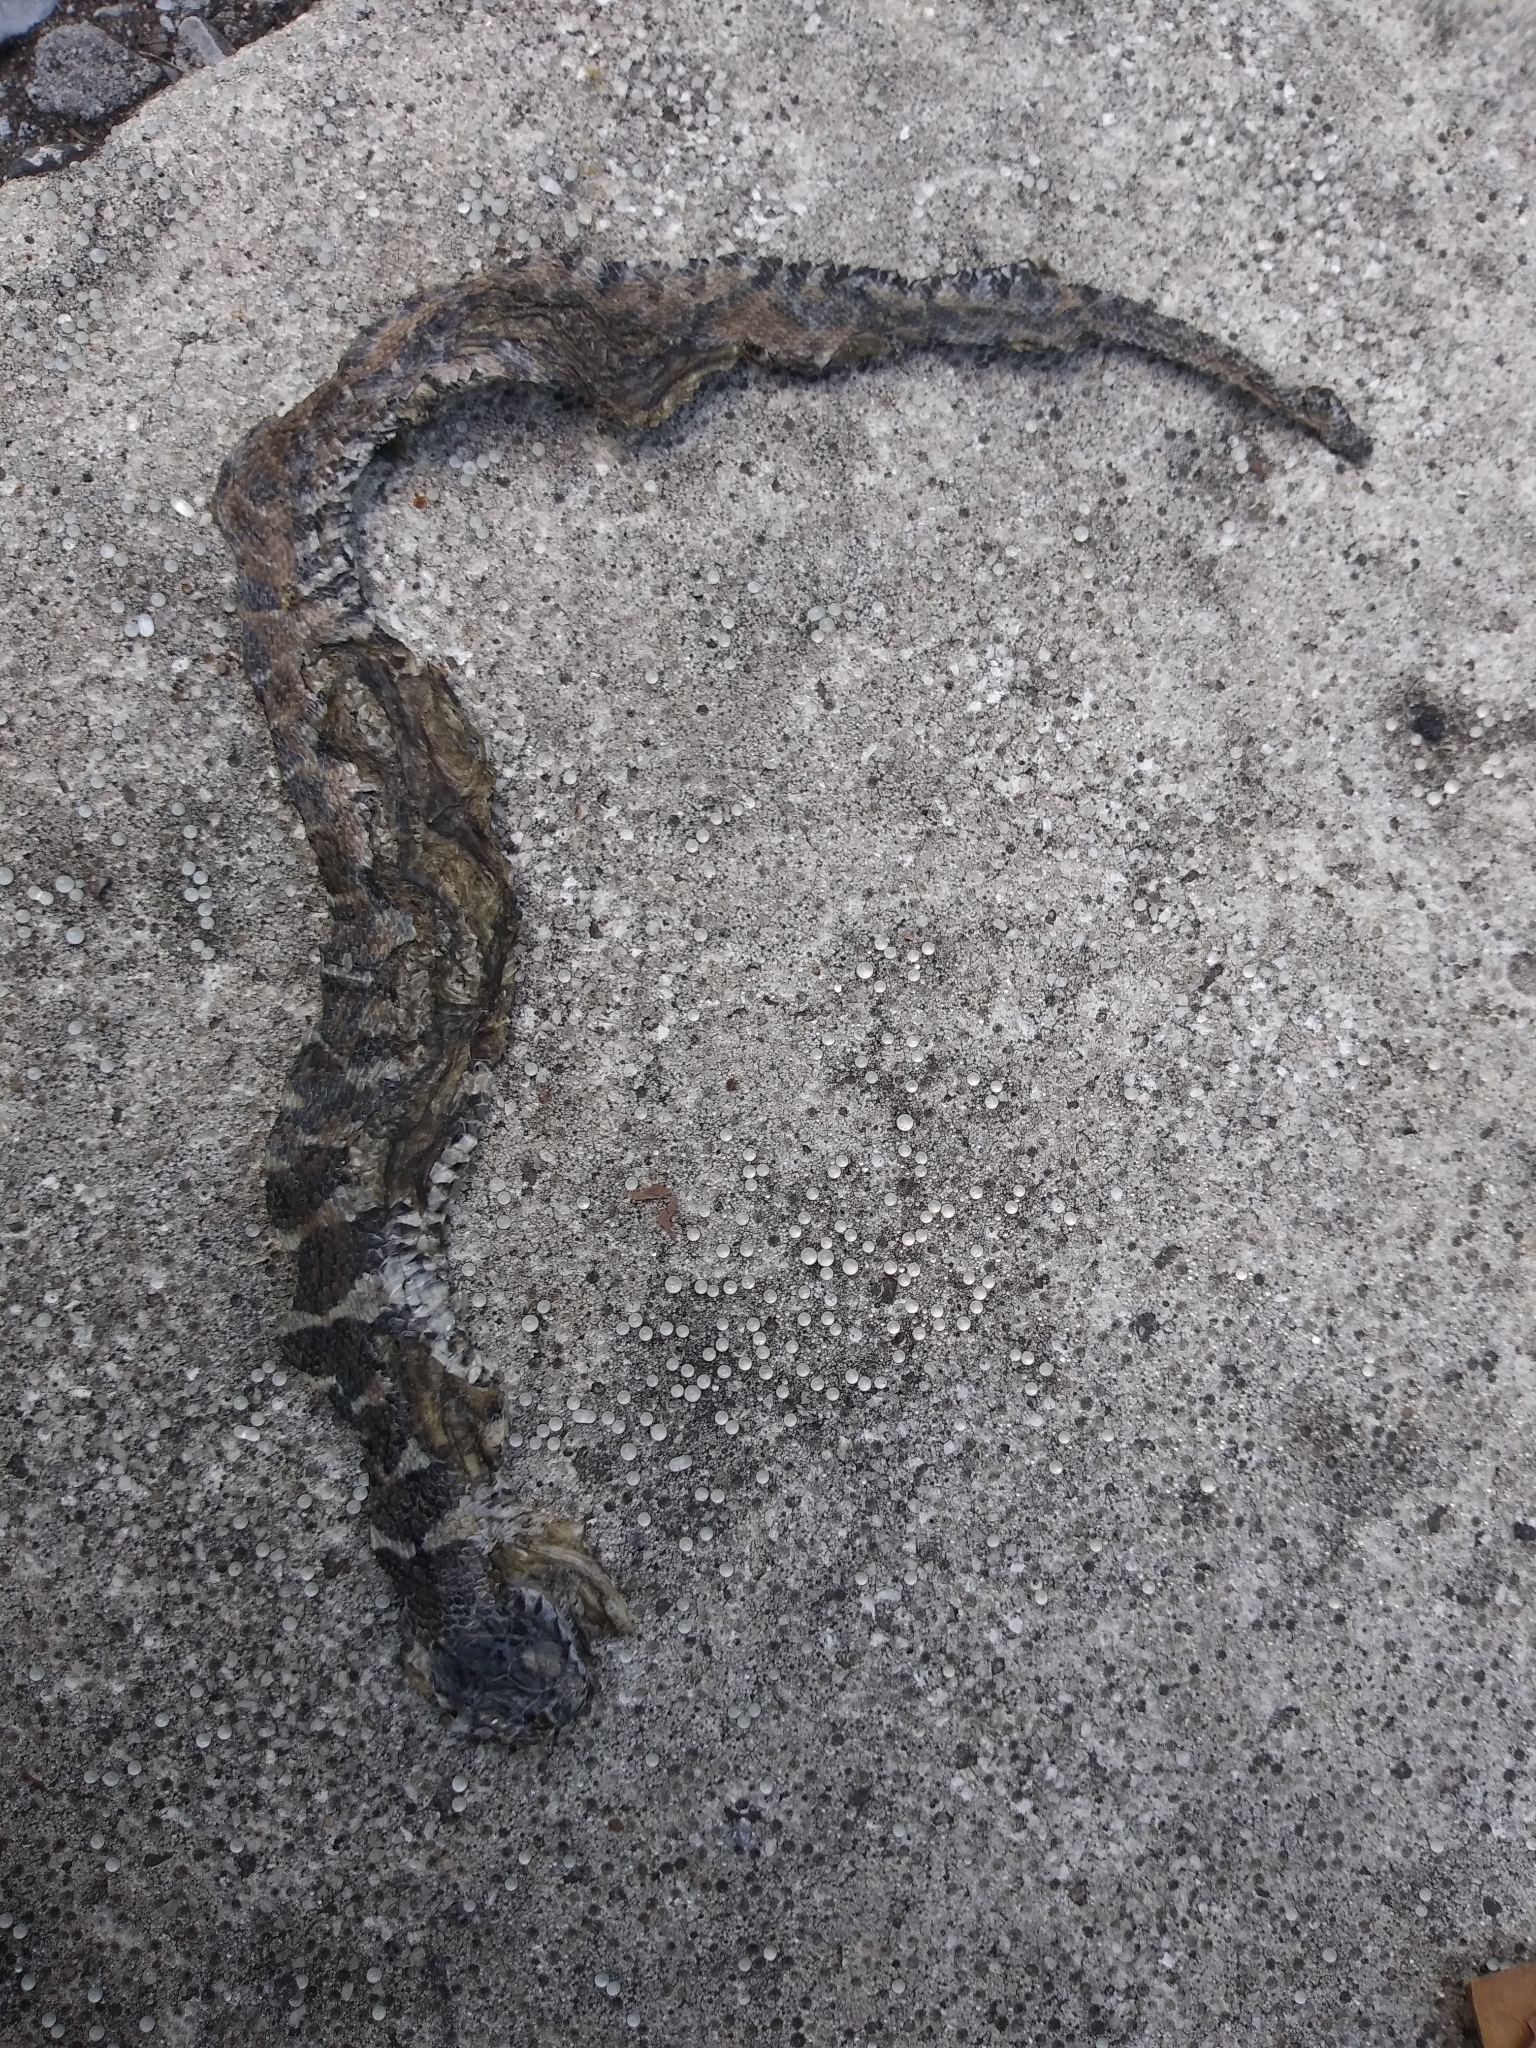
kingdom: Animalia
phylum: Chordata
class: Squamata
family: Colubridae
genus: Nerodia
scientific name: Nerodia sipedon
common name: Northern water snake
